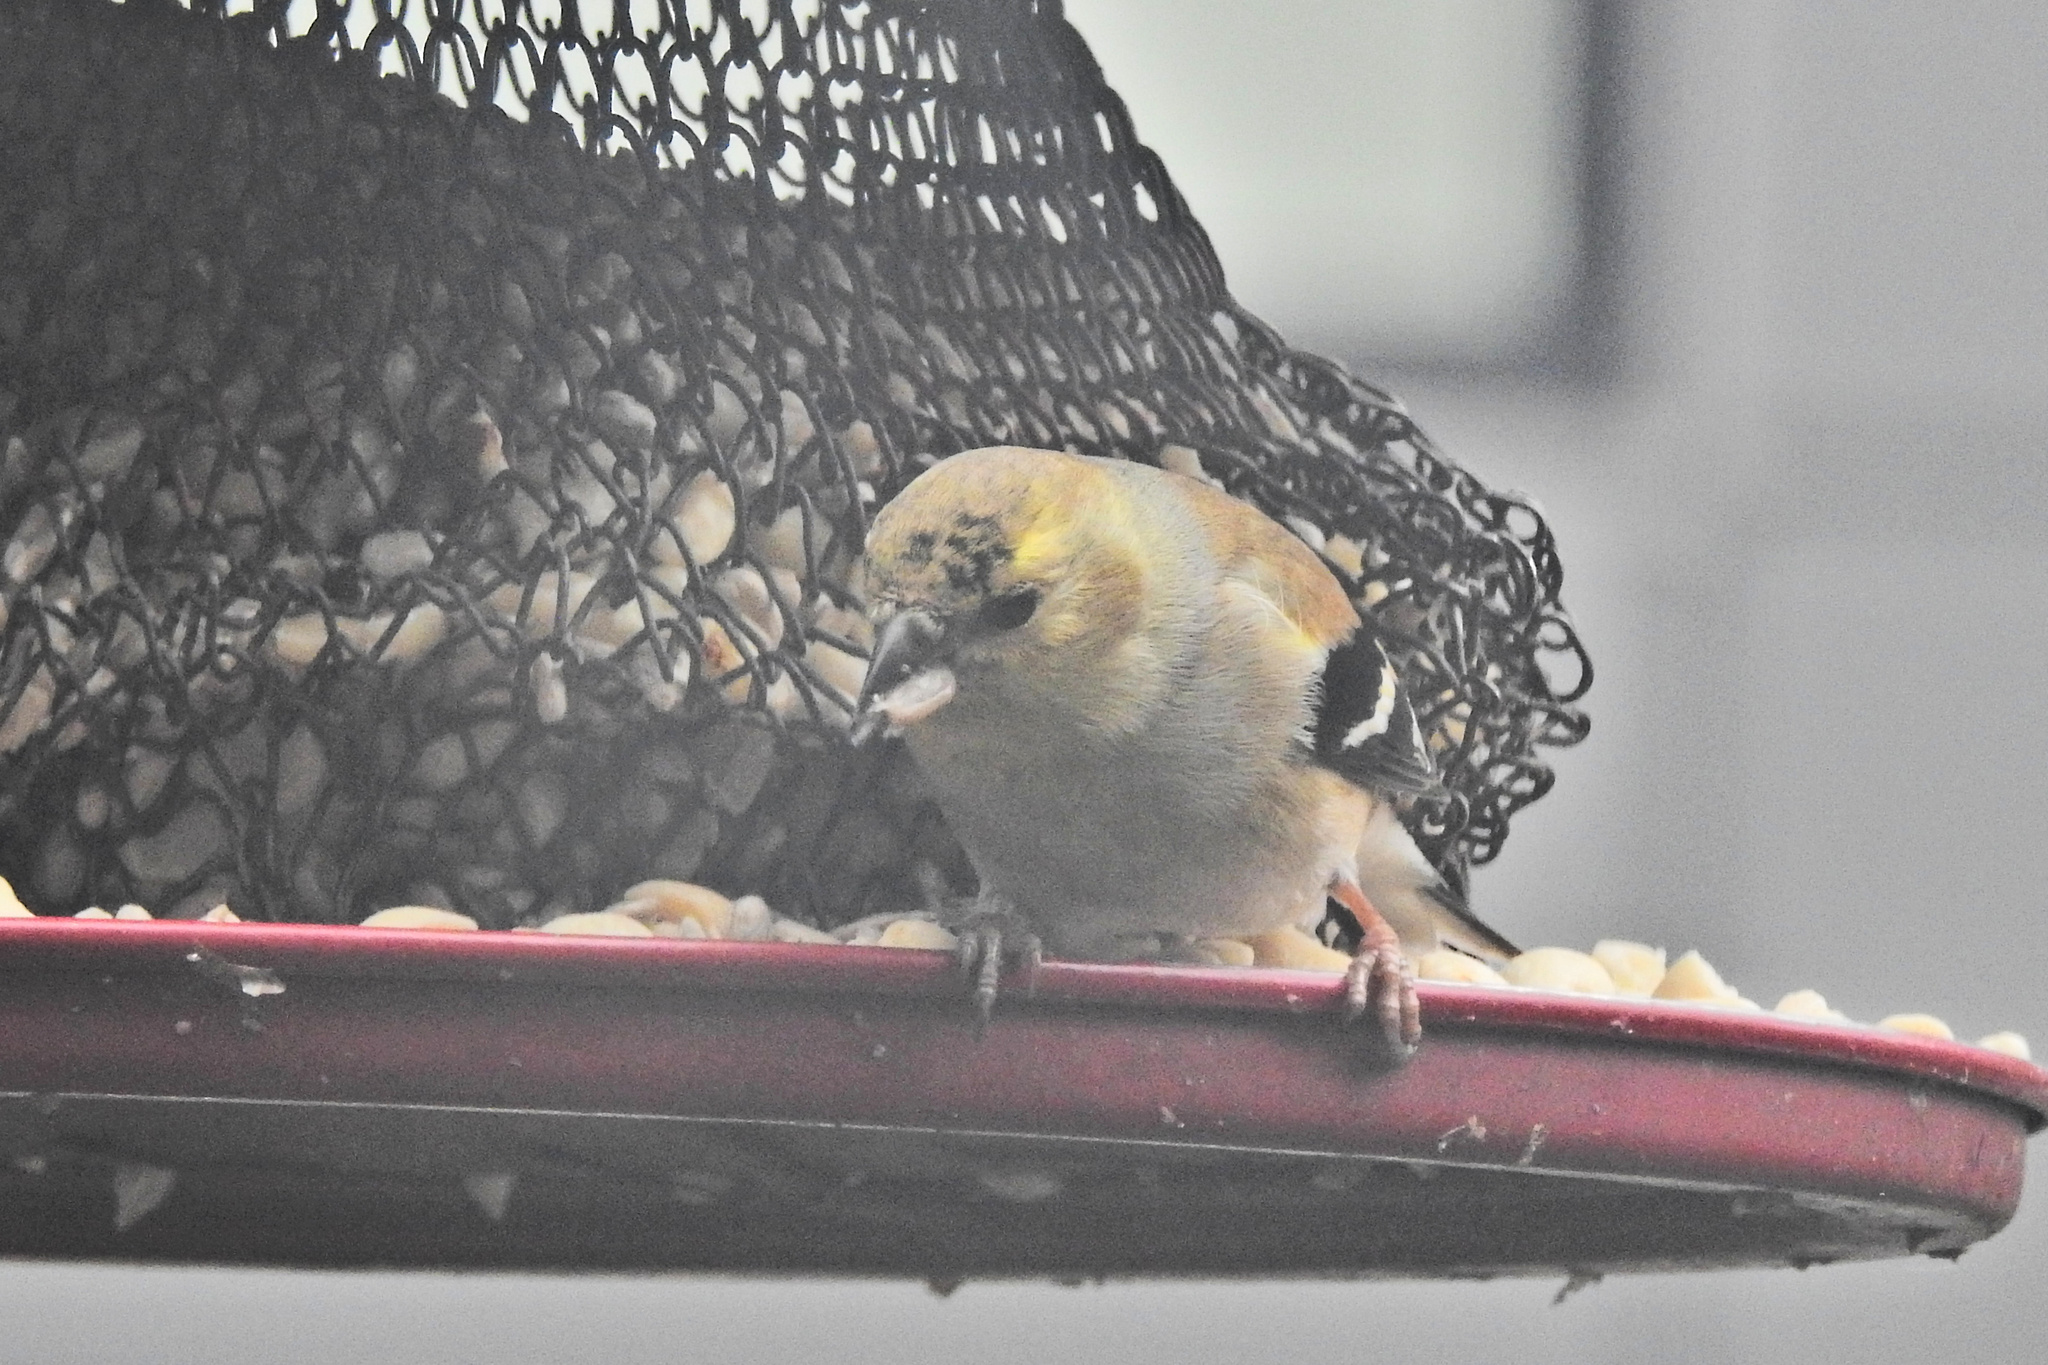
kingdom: Animalia
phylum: Chordata
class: Aves
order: Passeriformes
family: Fringillidae
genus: Spinus
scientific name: Spinus tristis
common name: American goldfinch
